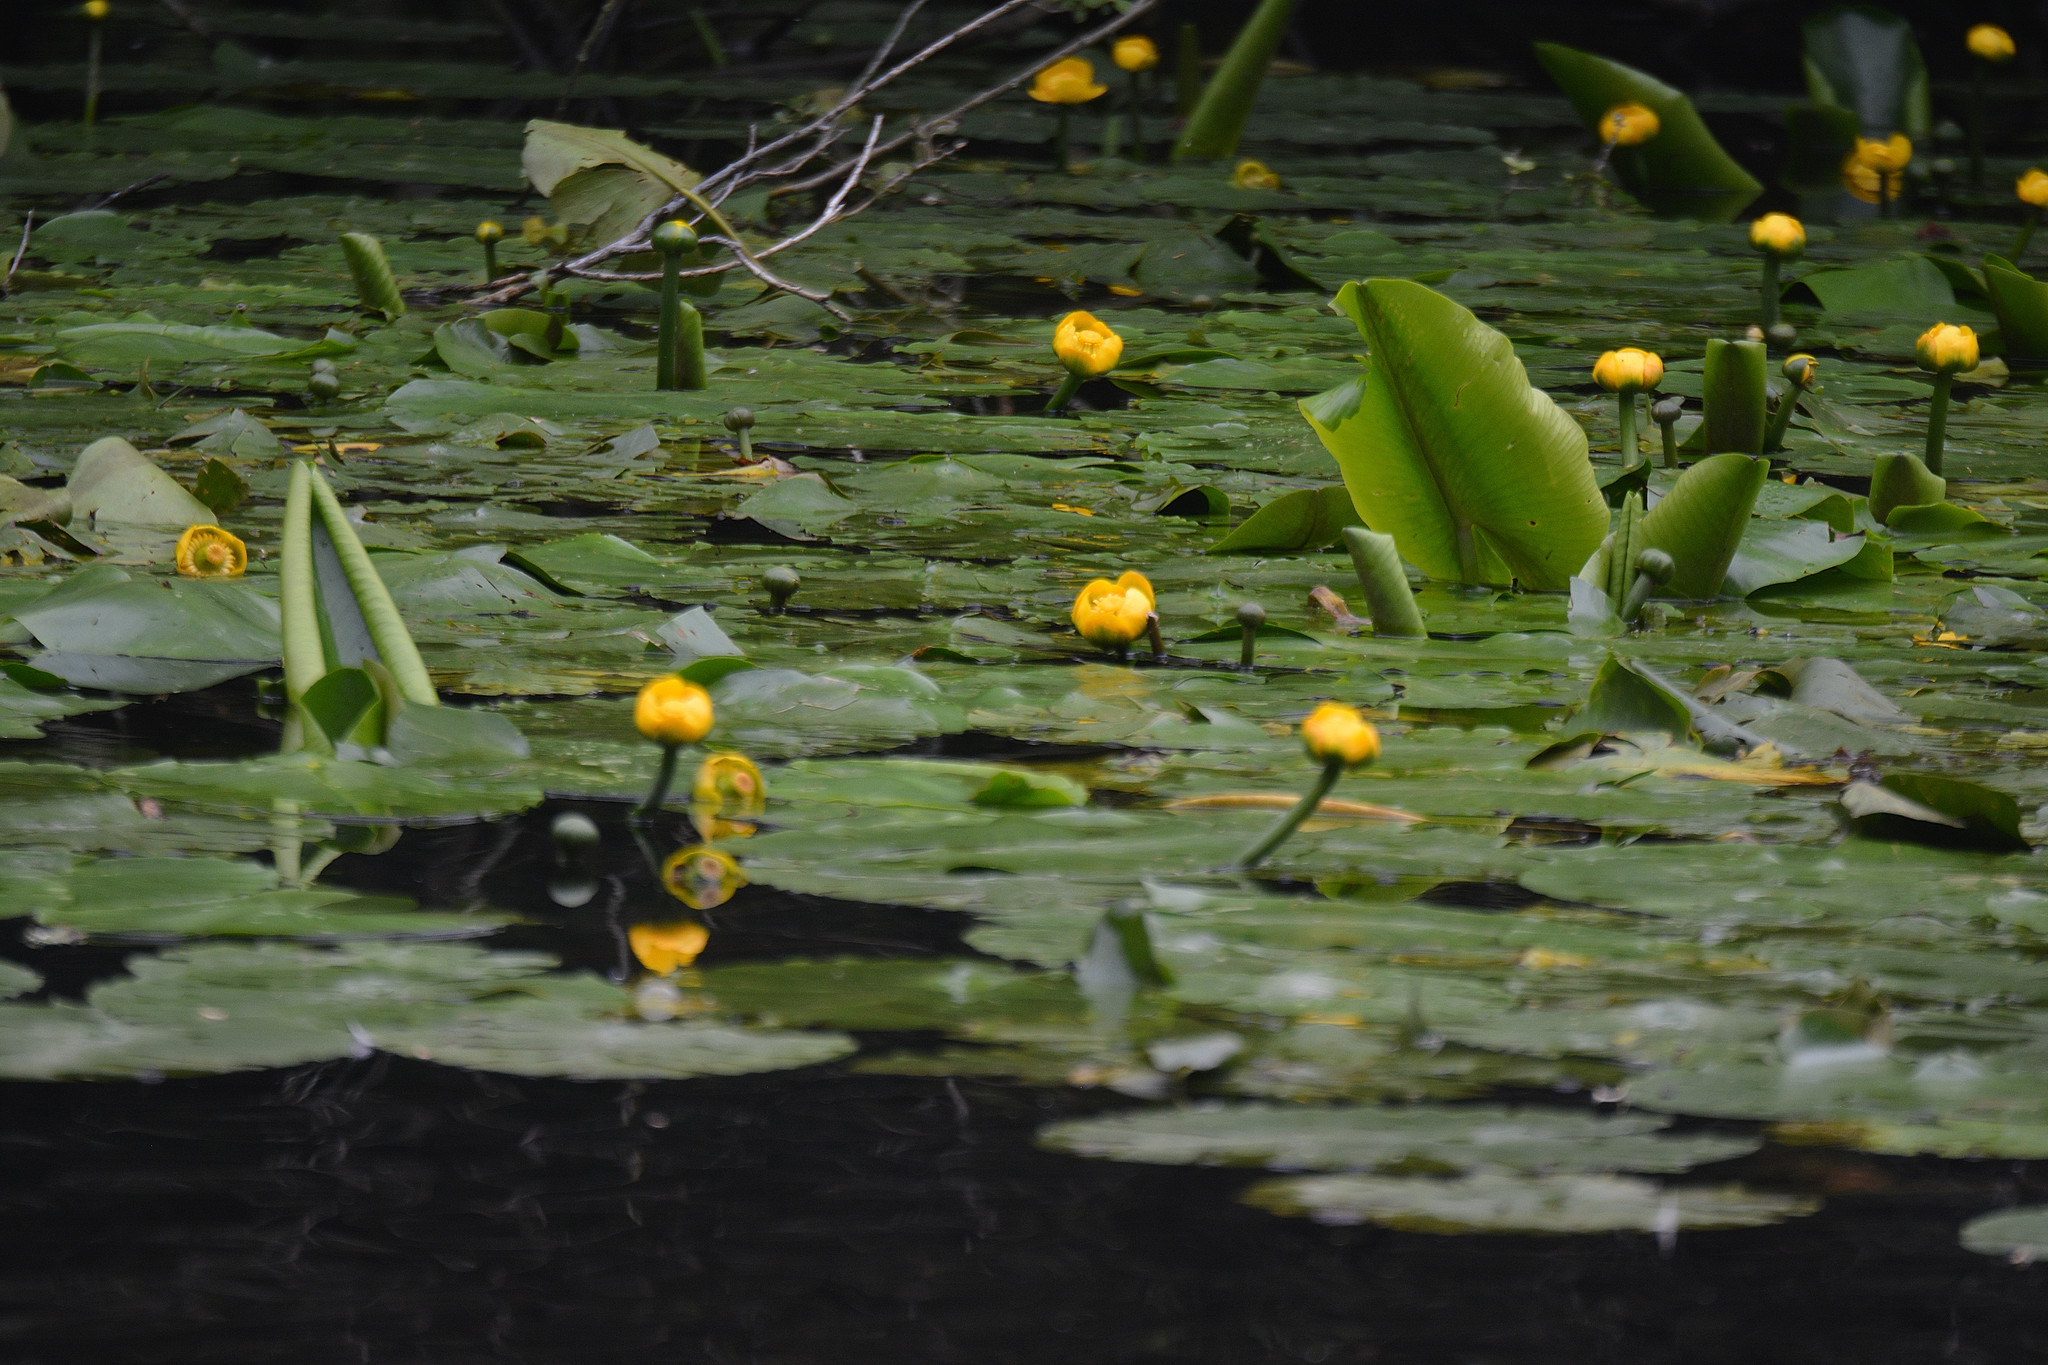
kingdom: Plantae
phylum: Tracheophyta
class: Magnoliopsida
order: Nymphaeales
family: Nymphaeaceae
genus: Nuphar
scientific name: Nuphar lutea
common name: Yellow water-lily
